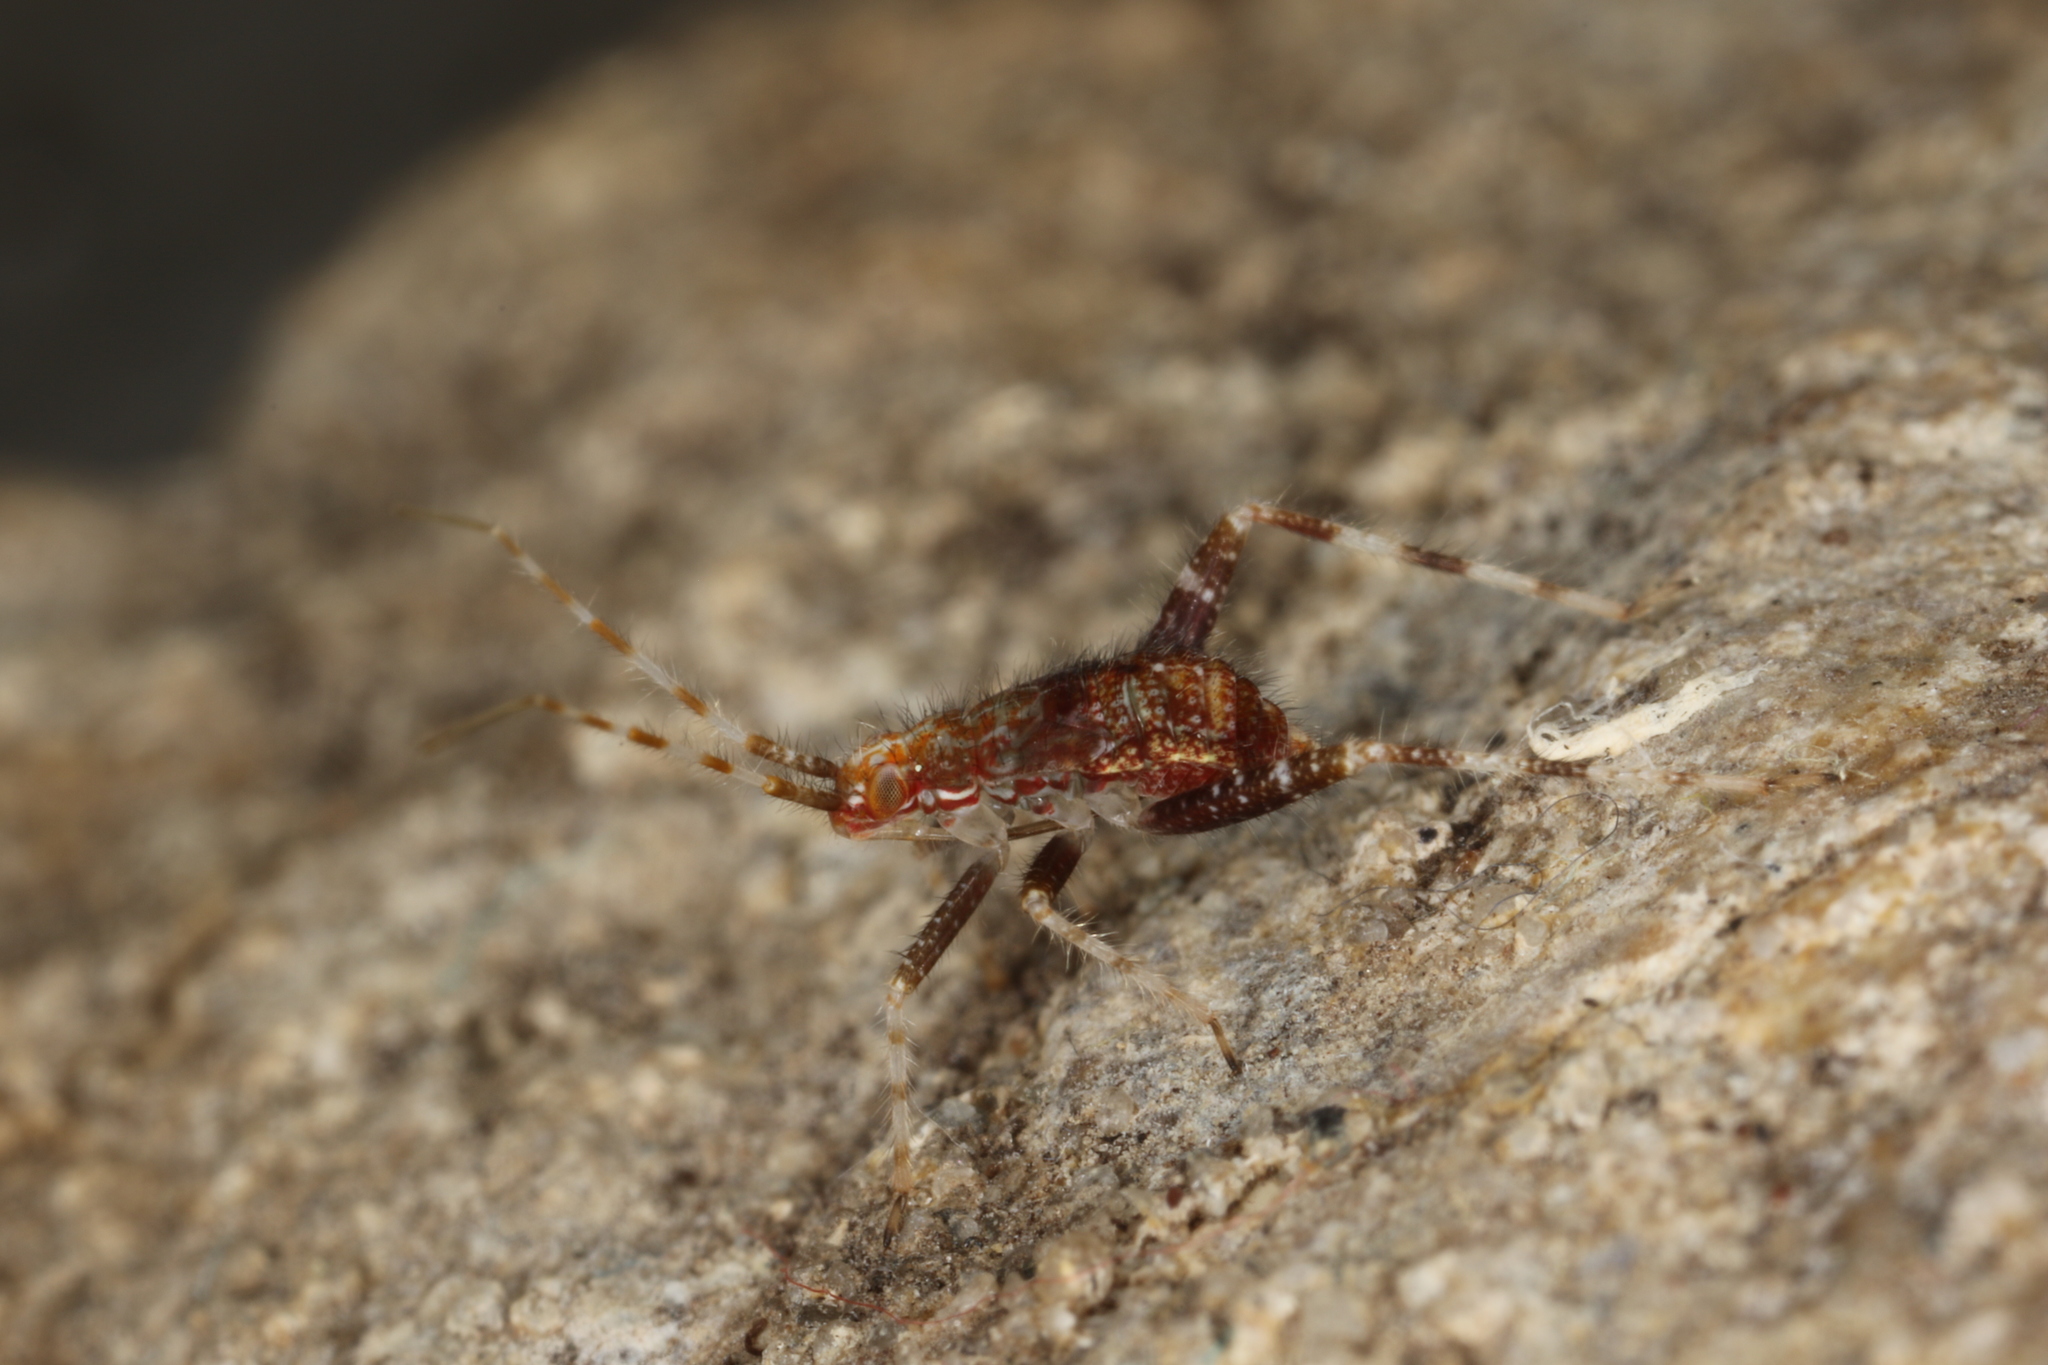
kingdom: Animalia
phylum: Arthropoda
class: Insecta
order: Hemiptera
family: Miridae
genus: Phytocoris
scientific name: Phytocoris ulmi
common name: Plant bug
